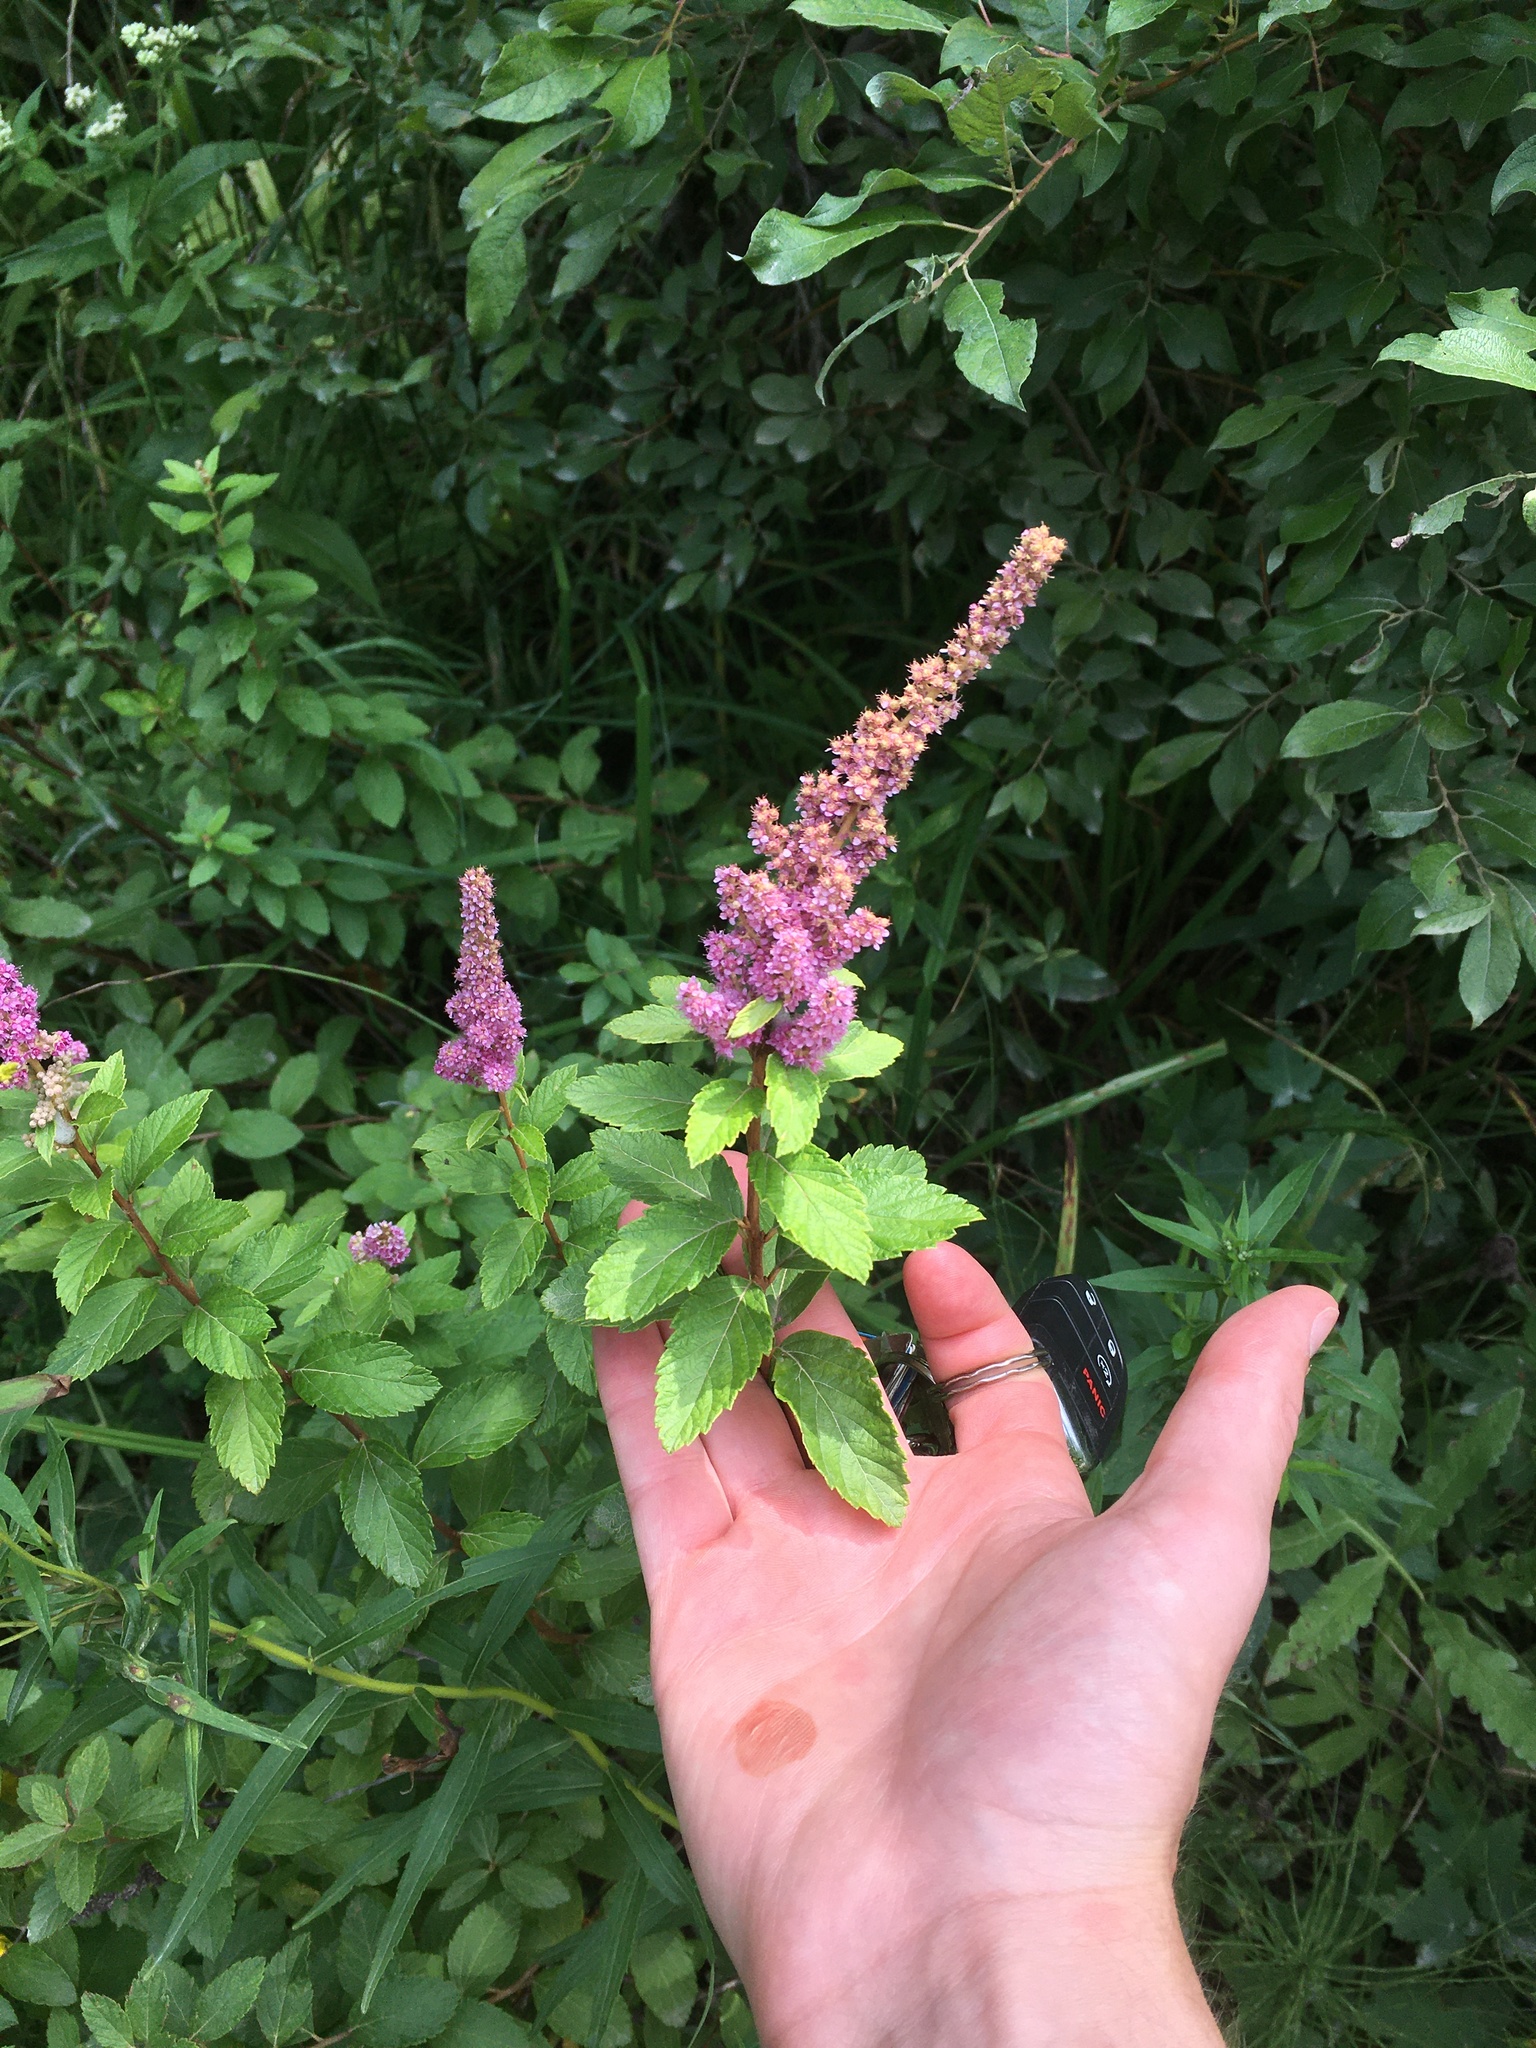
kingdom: Plantae
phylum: Tracheophyta
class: Magnoliopsida
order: Rosales
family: Rosaceae
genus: Spiraea
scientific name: Spiraea tomentosa
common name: Hardhack
